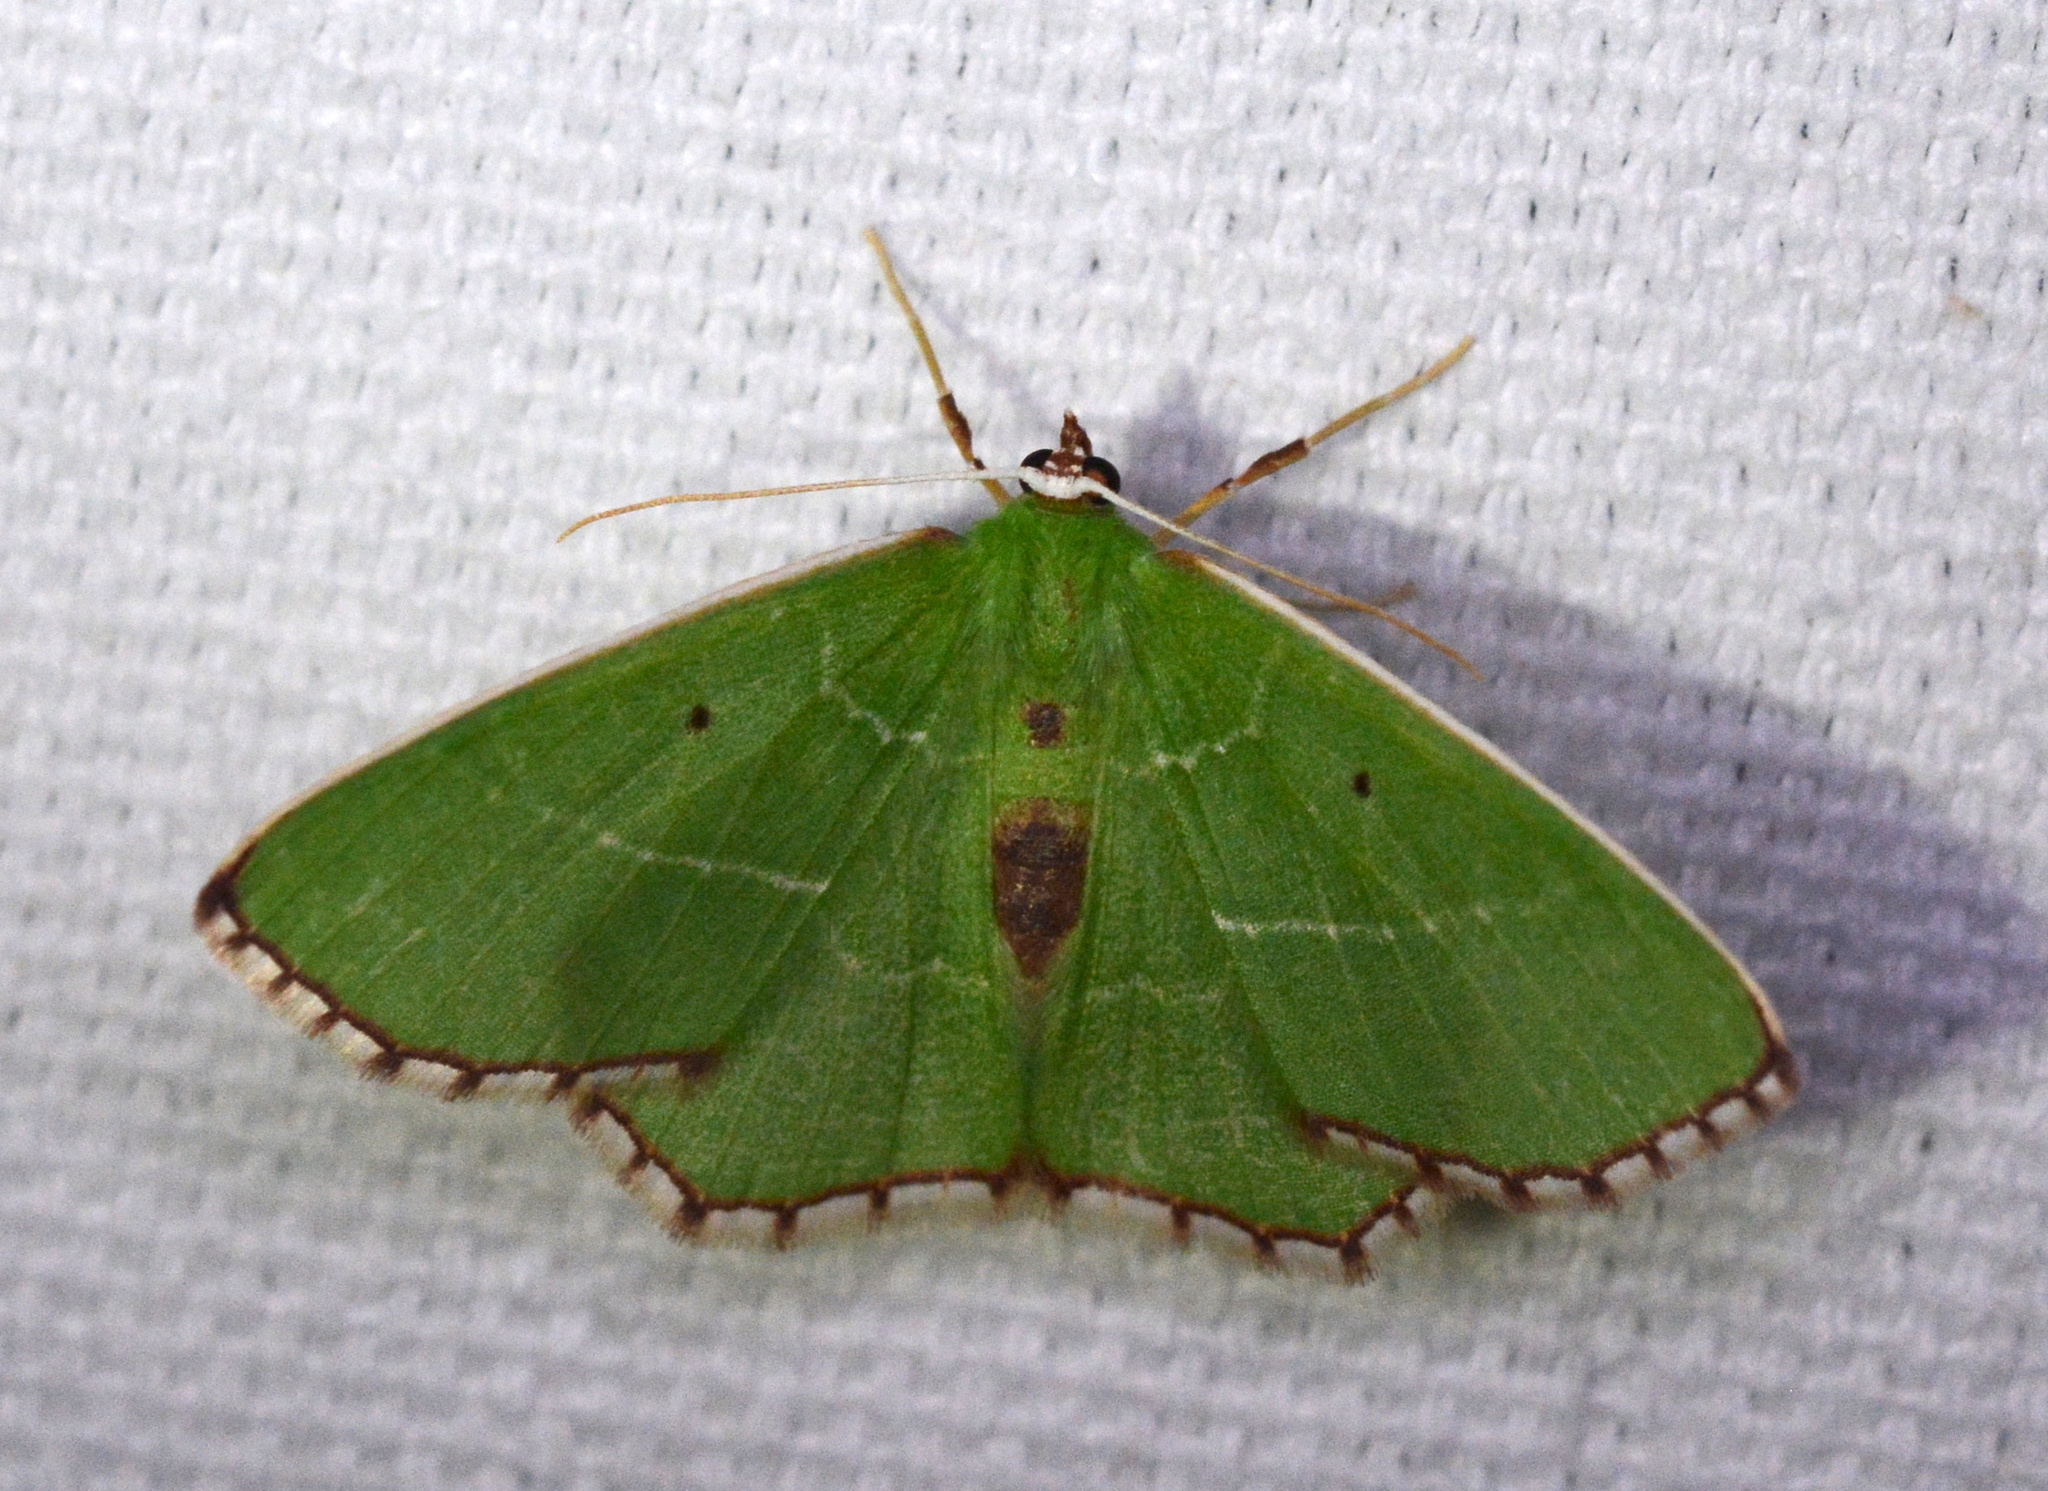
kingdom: Animalia
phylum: Arthropoda
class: Insecta
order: Lepidoptera
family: Geometridae
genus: Nemoria
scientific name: Nemoria saturiba
